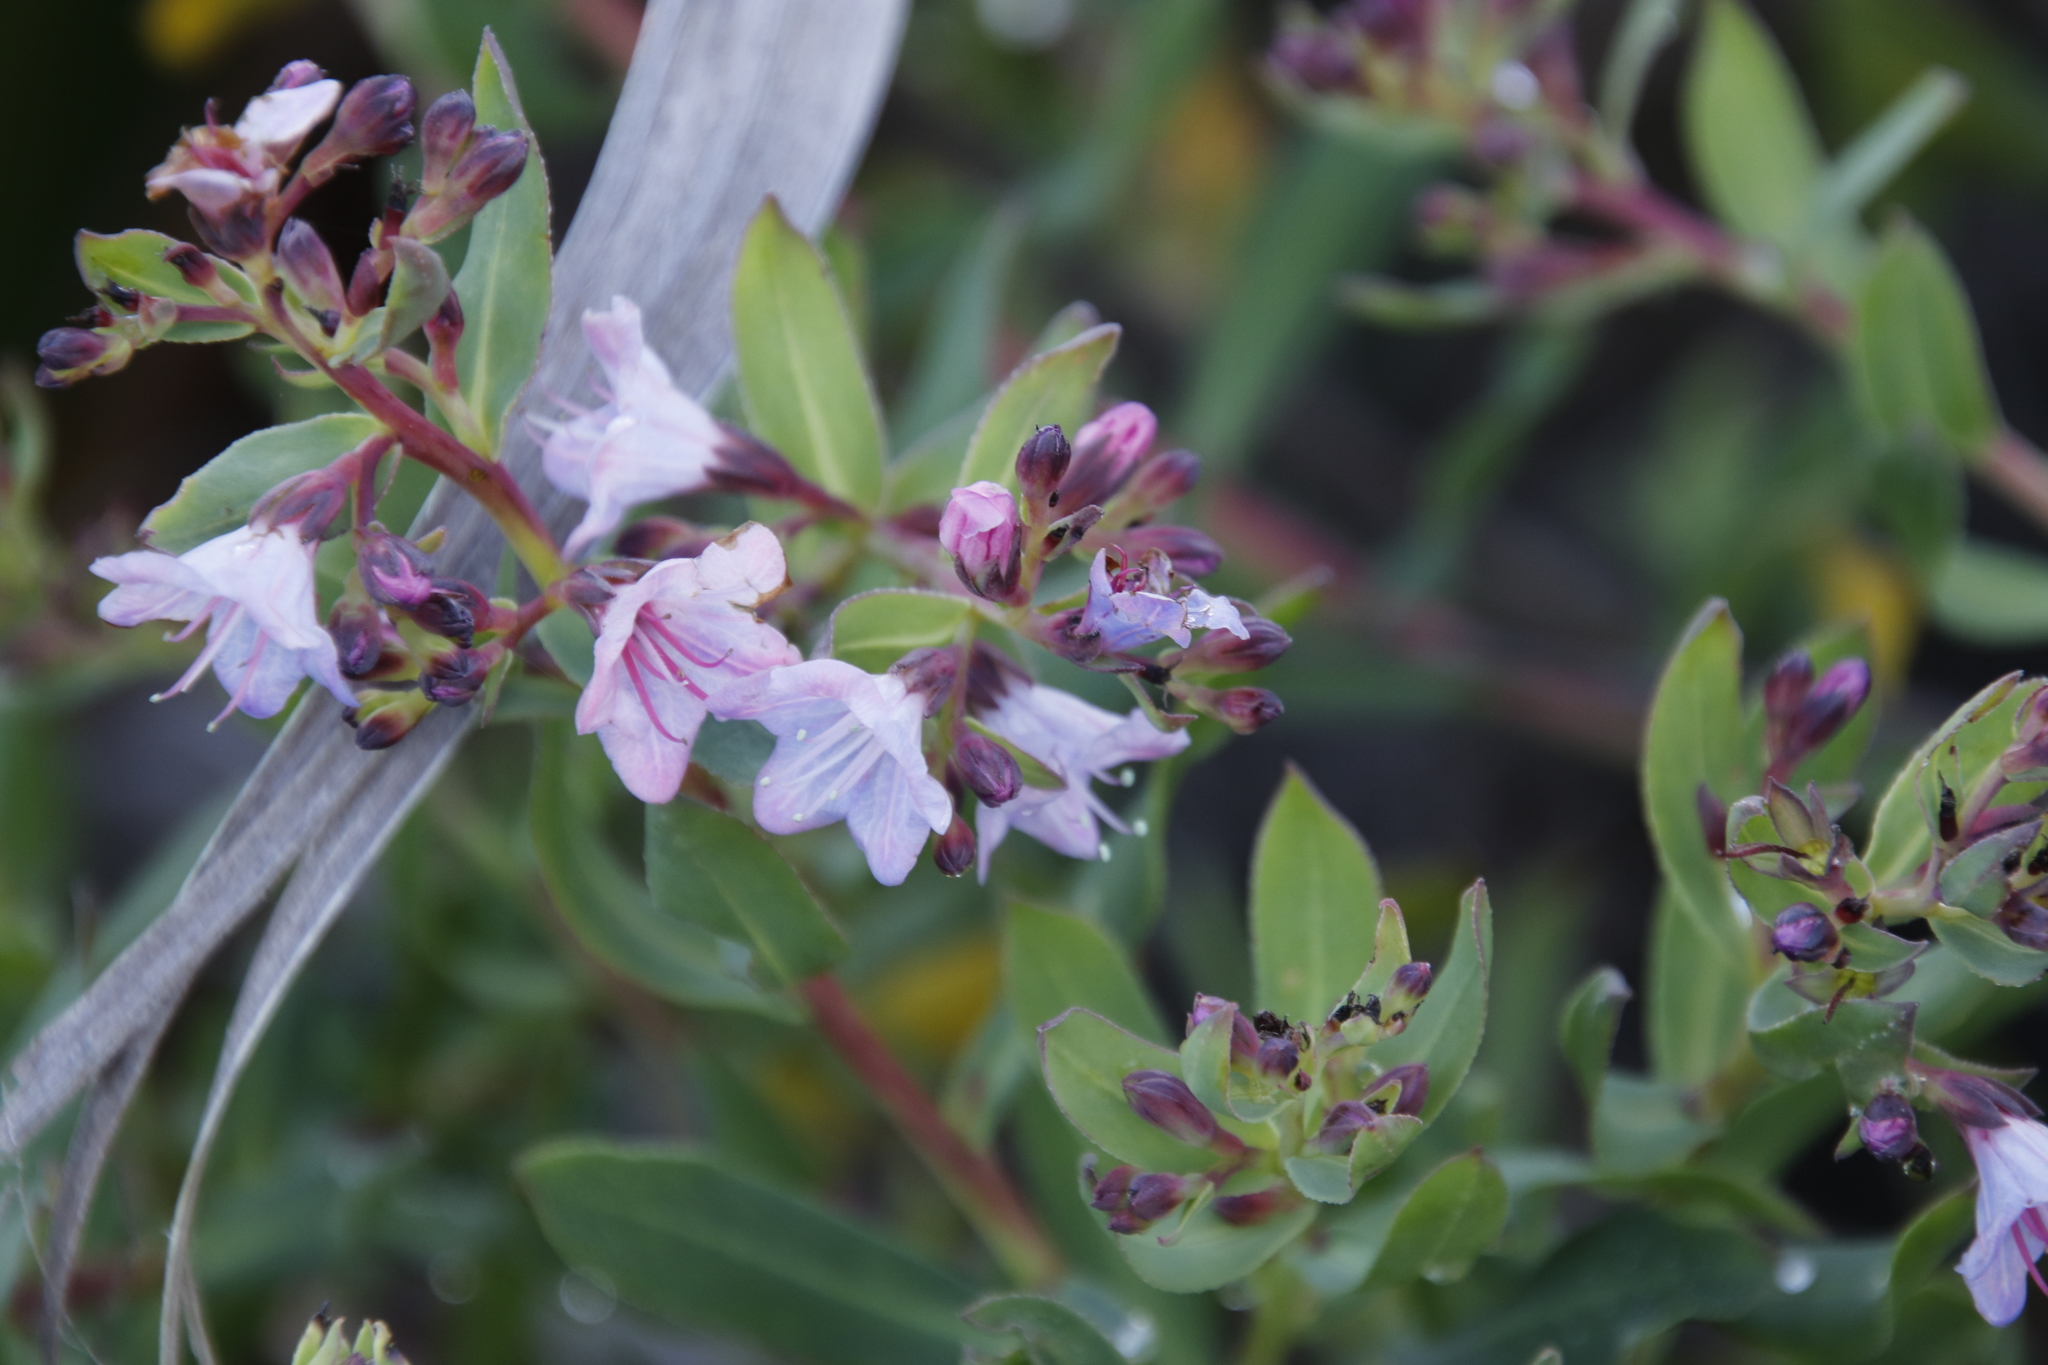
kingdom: Plantae
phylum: Tracheophyta
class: Magnoliopsida
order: Boraginales
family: Boraginaceae
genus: Lobostemon
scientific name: Lobostemon glaucophyllus
